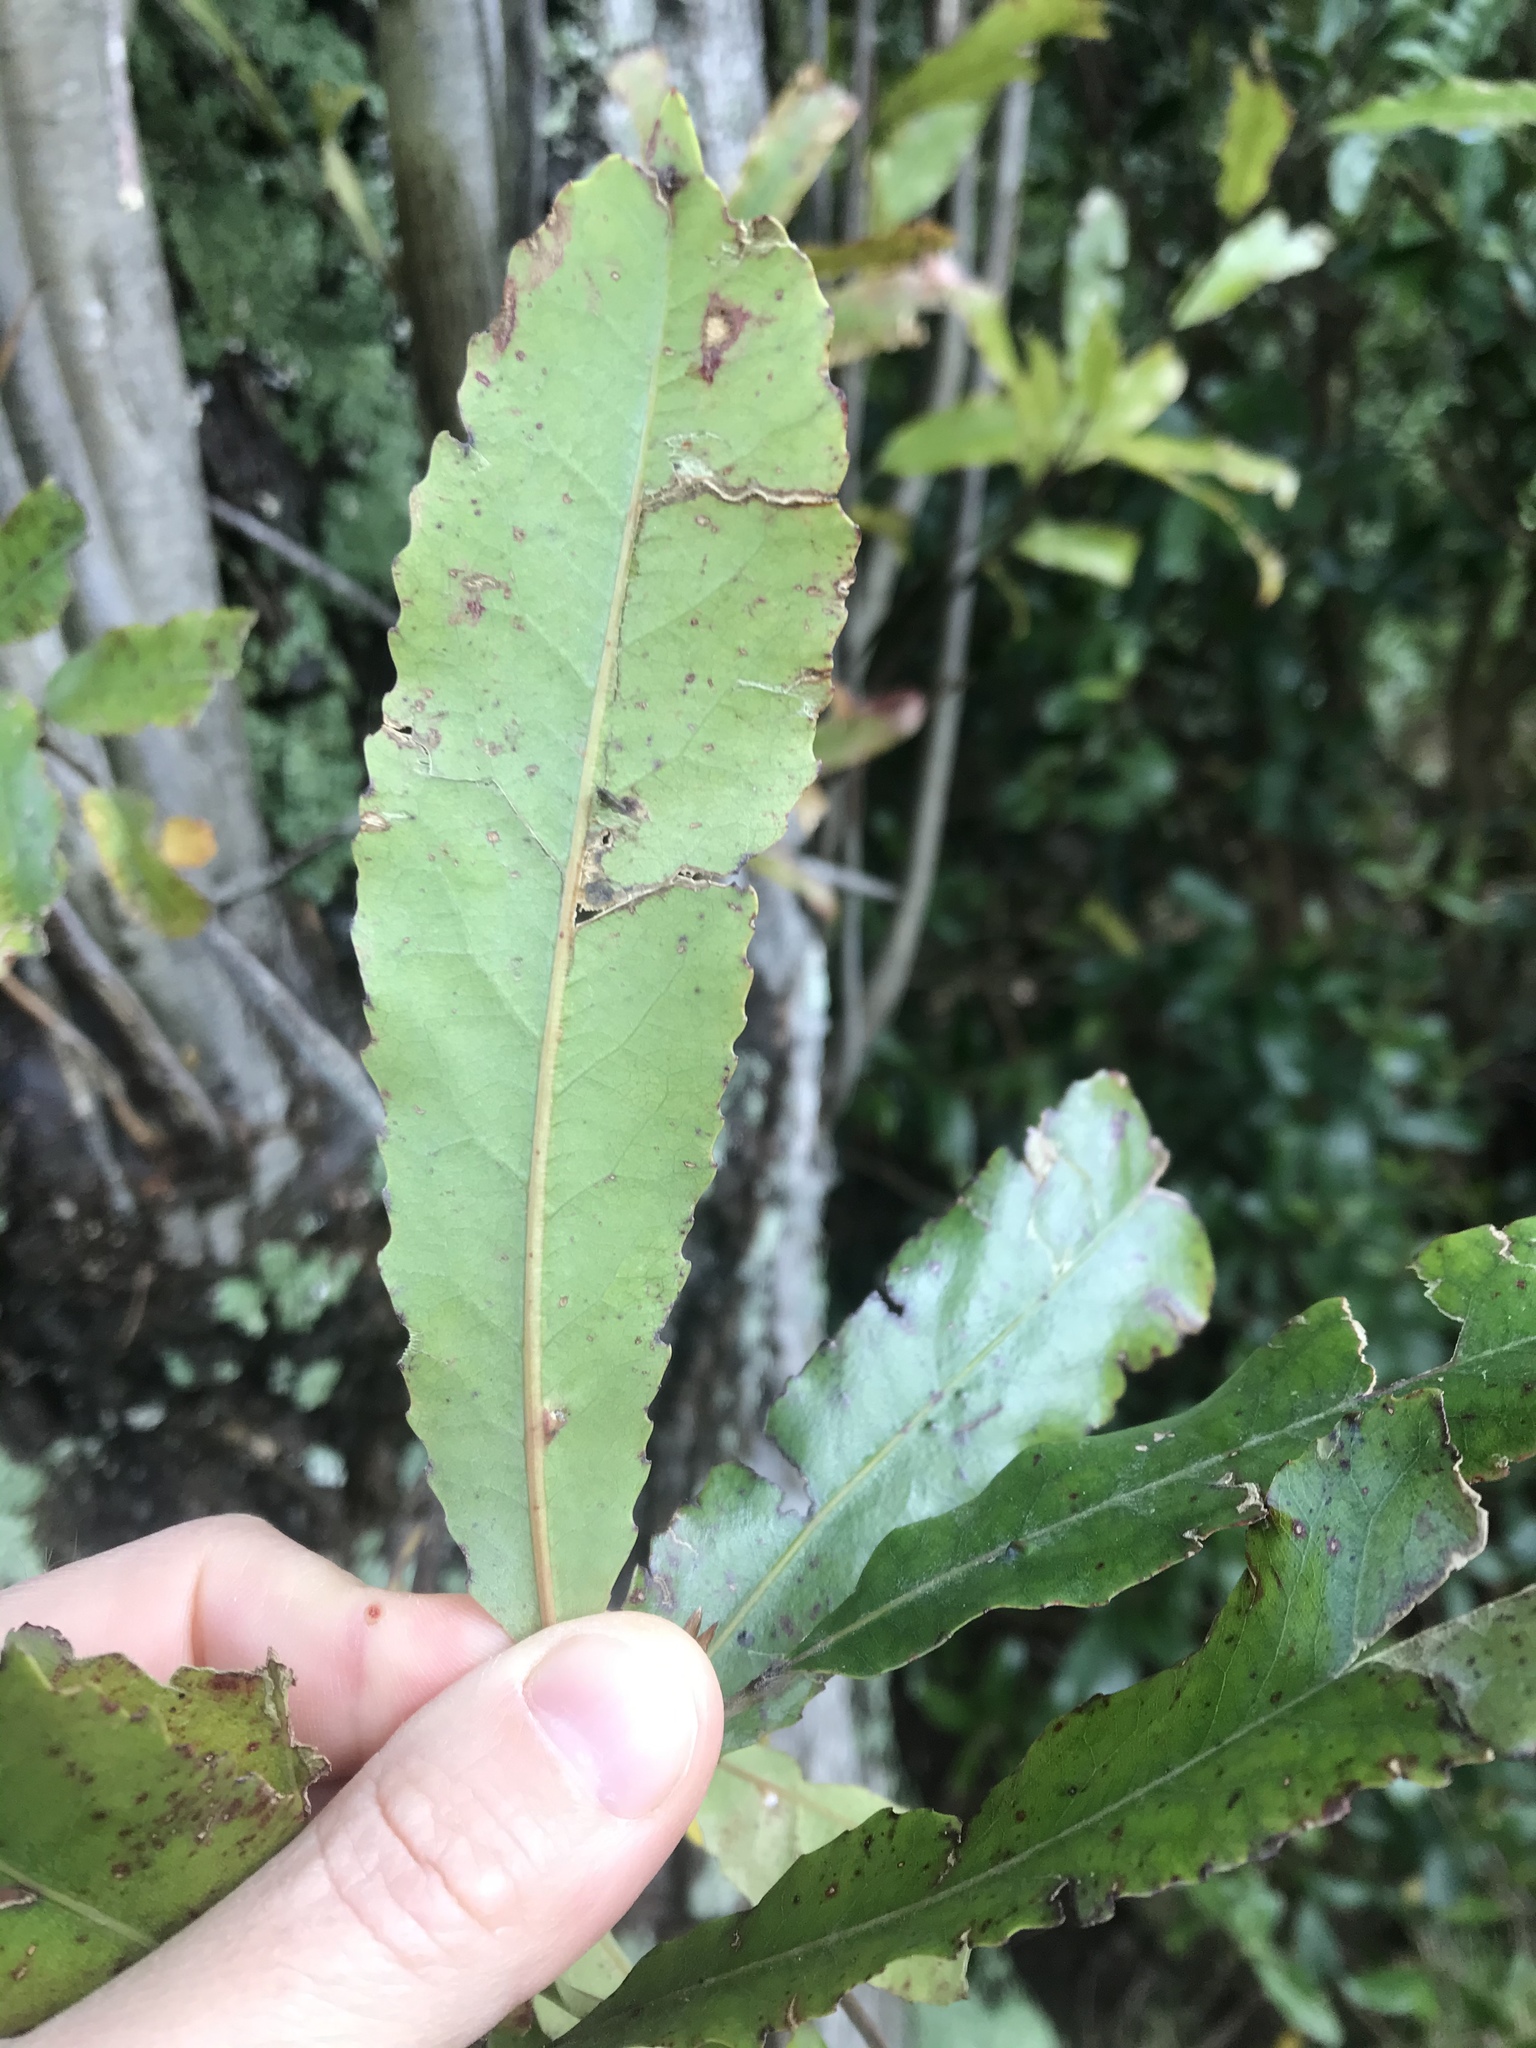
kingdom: Plantae
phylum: Tracheophyta
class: Magnoliopsida
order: Oxalidales
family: Elaeocarpaceae
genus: Elaeocarpus
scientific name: Elaeocarpus dentatus
